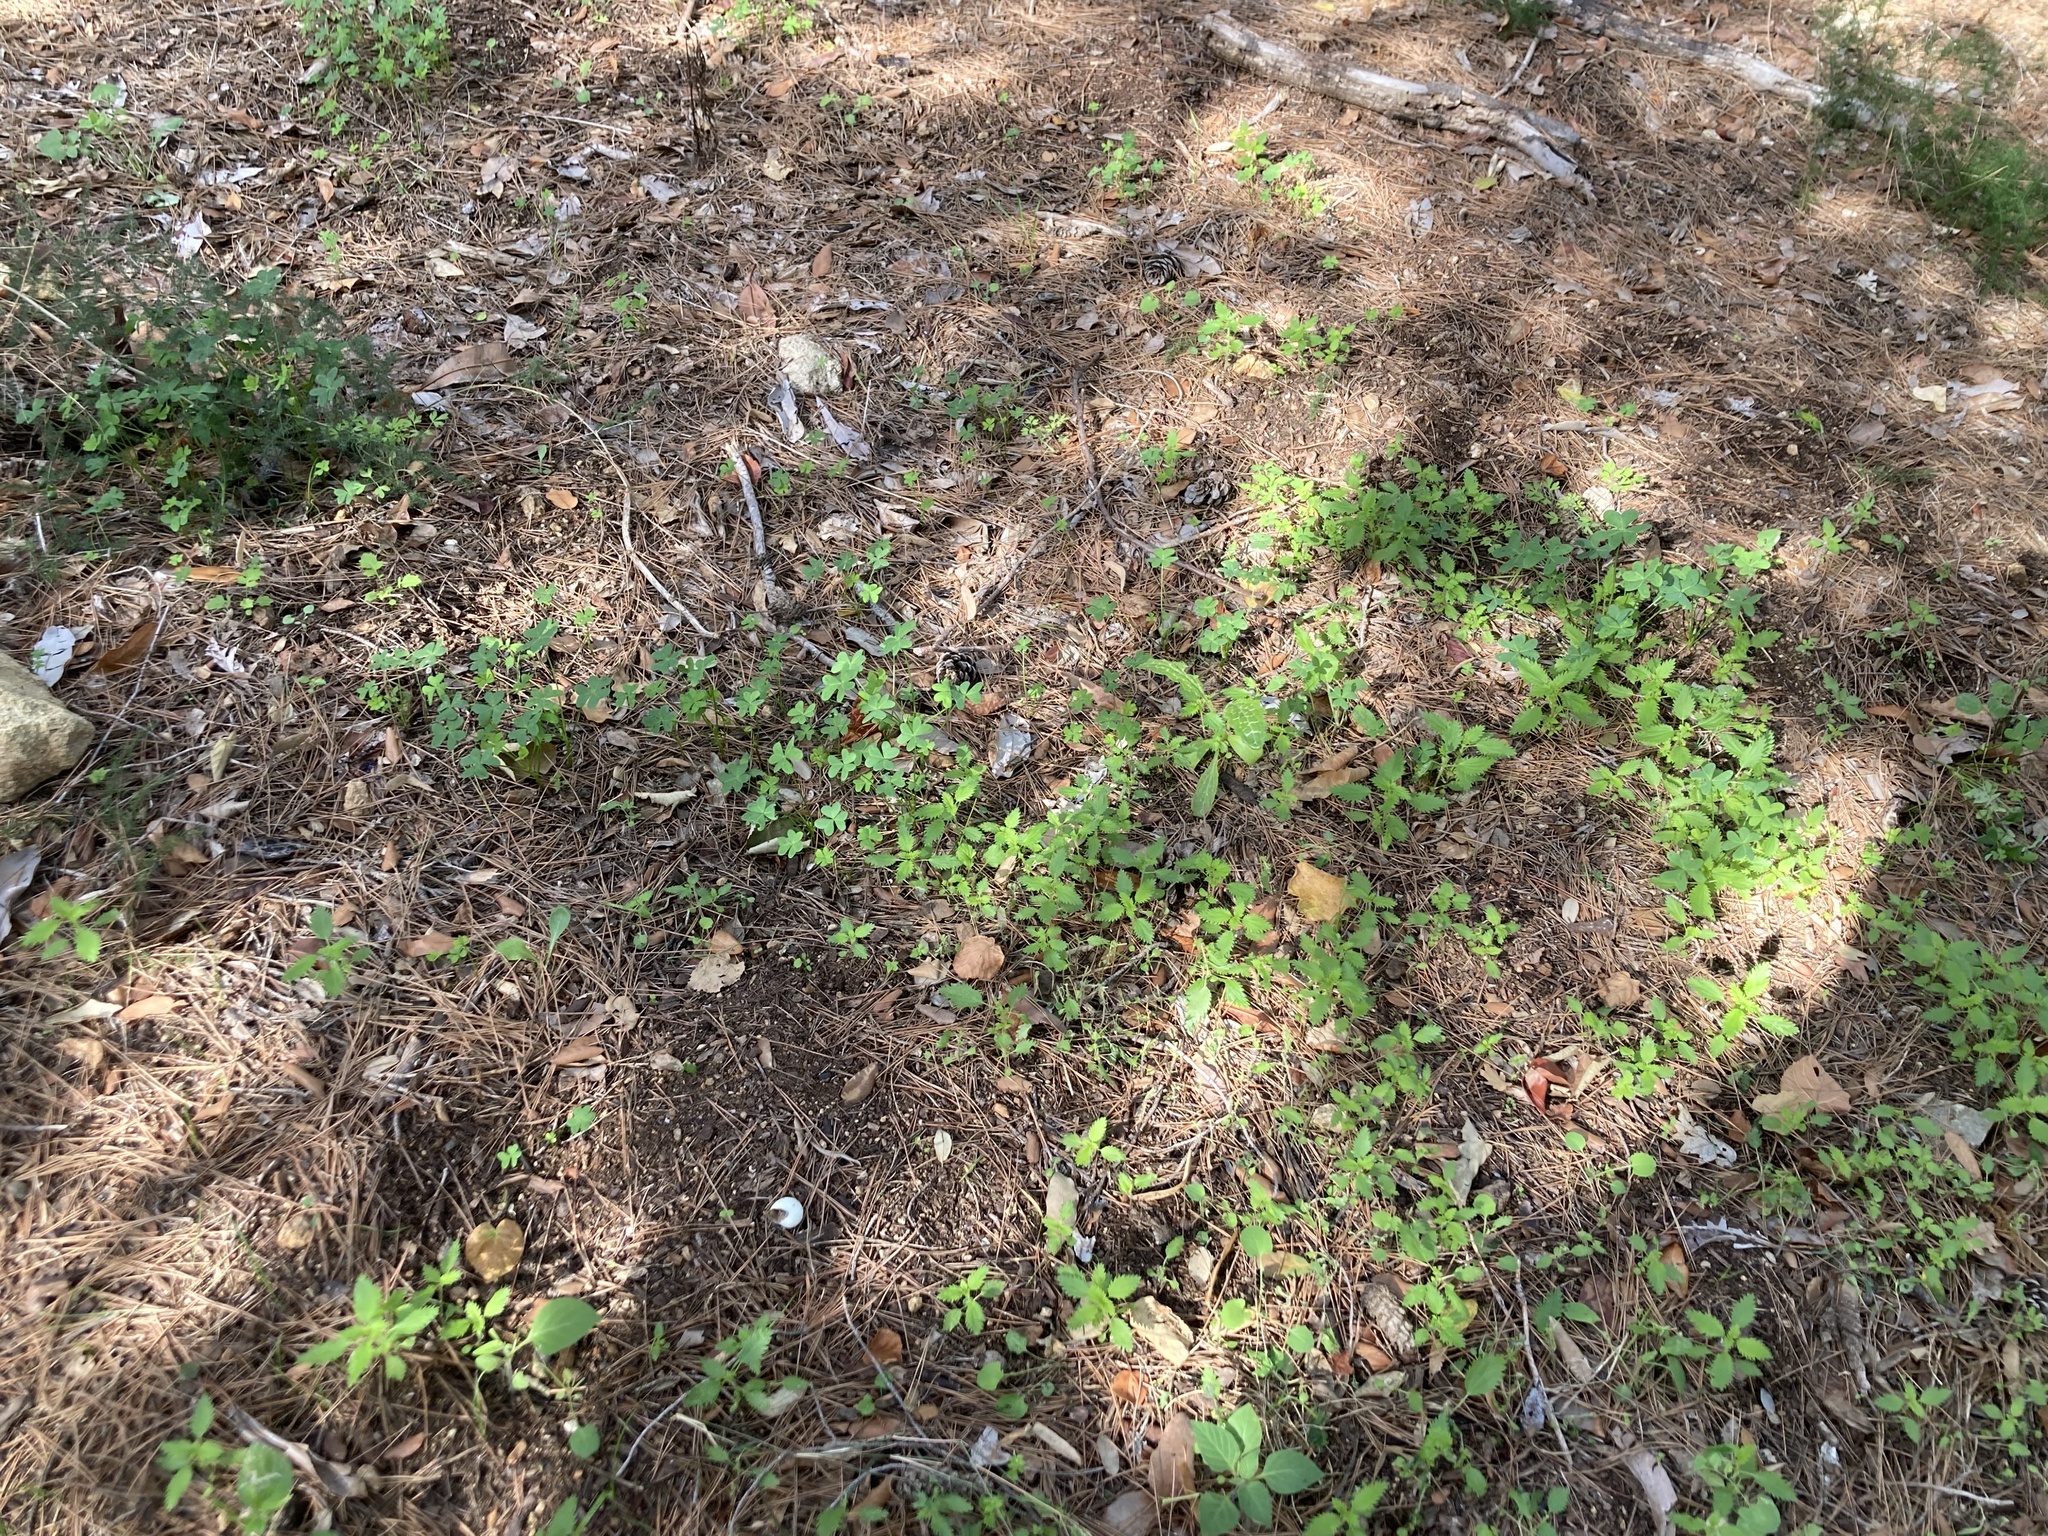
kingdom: Plantae
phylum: Tracheophyta
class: Magnoliopsida
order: Oxalidales
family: Oxalidaceae
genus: Oxalis
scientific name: Oxalis pes-caprae
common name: Bermuda-buttercup
